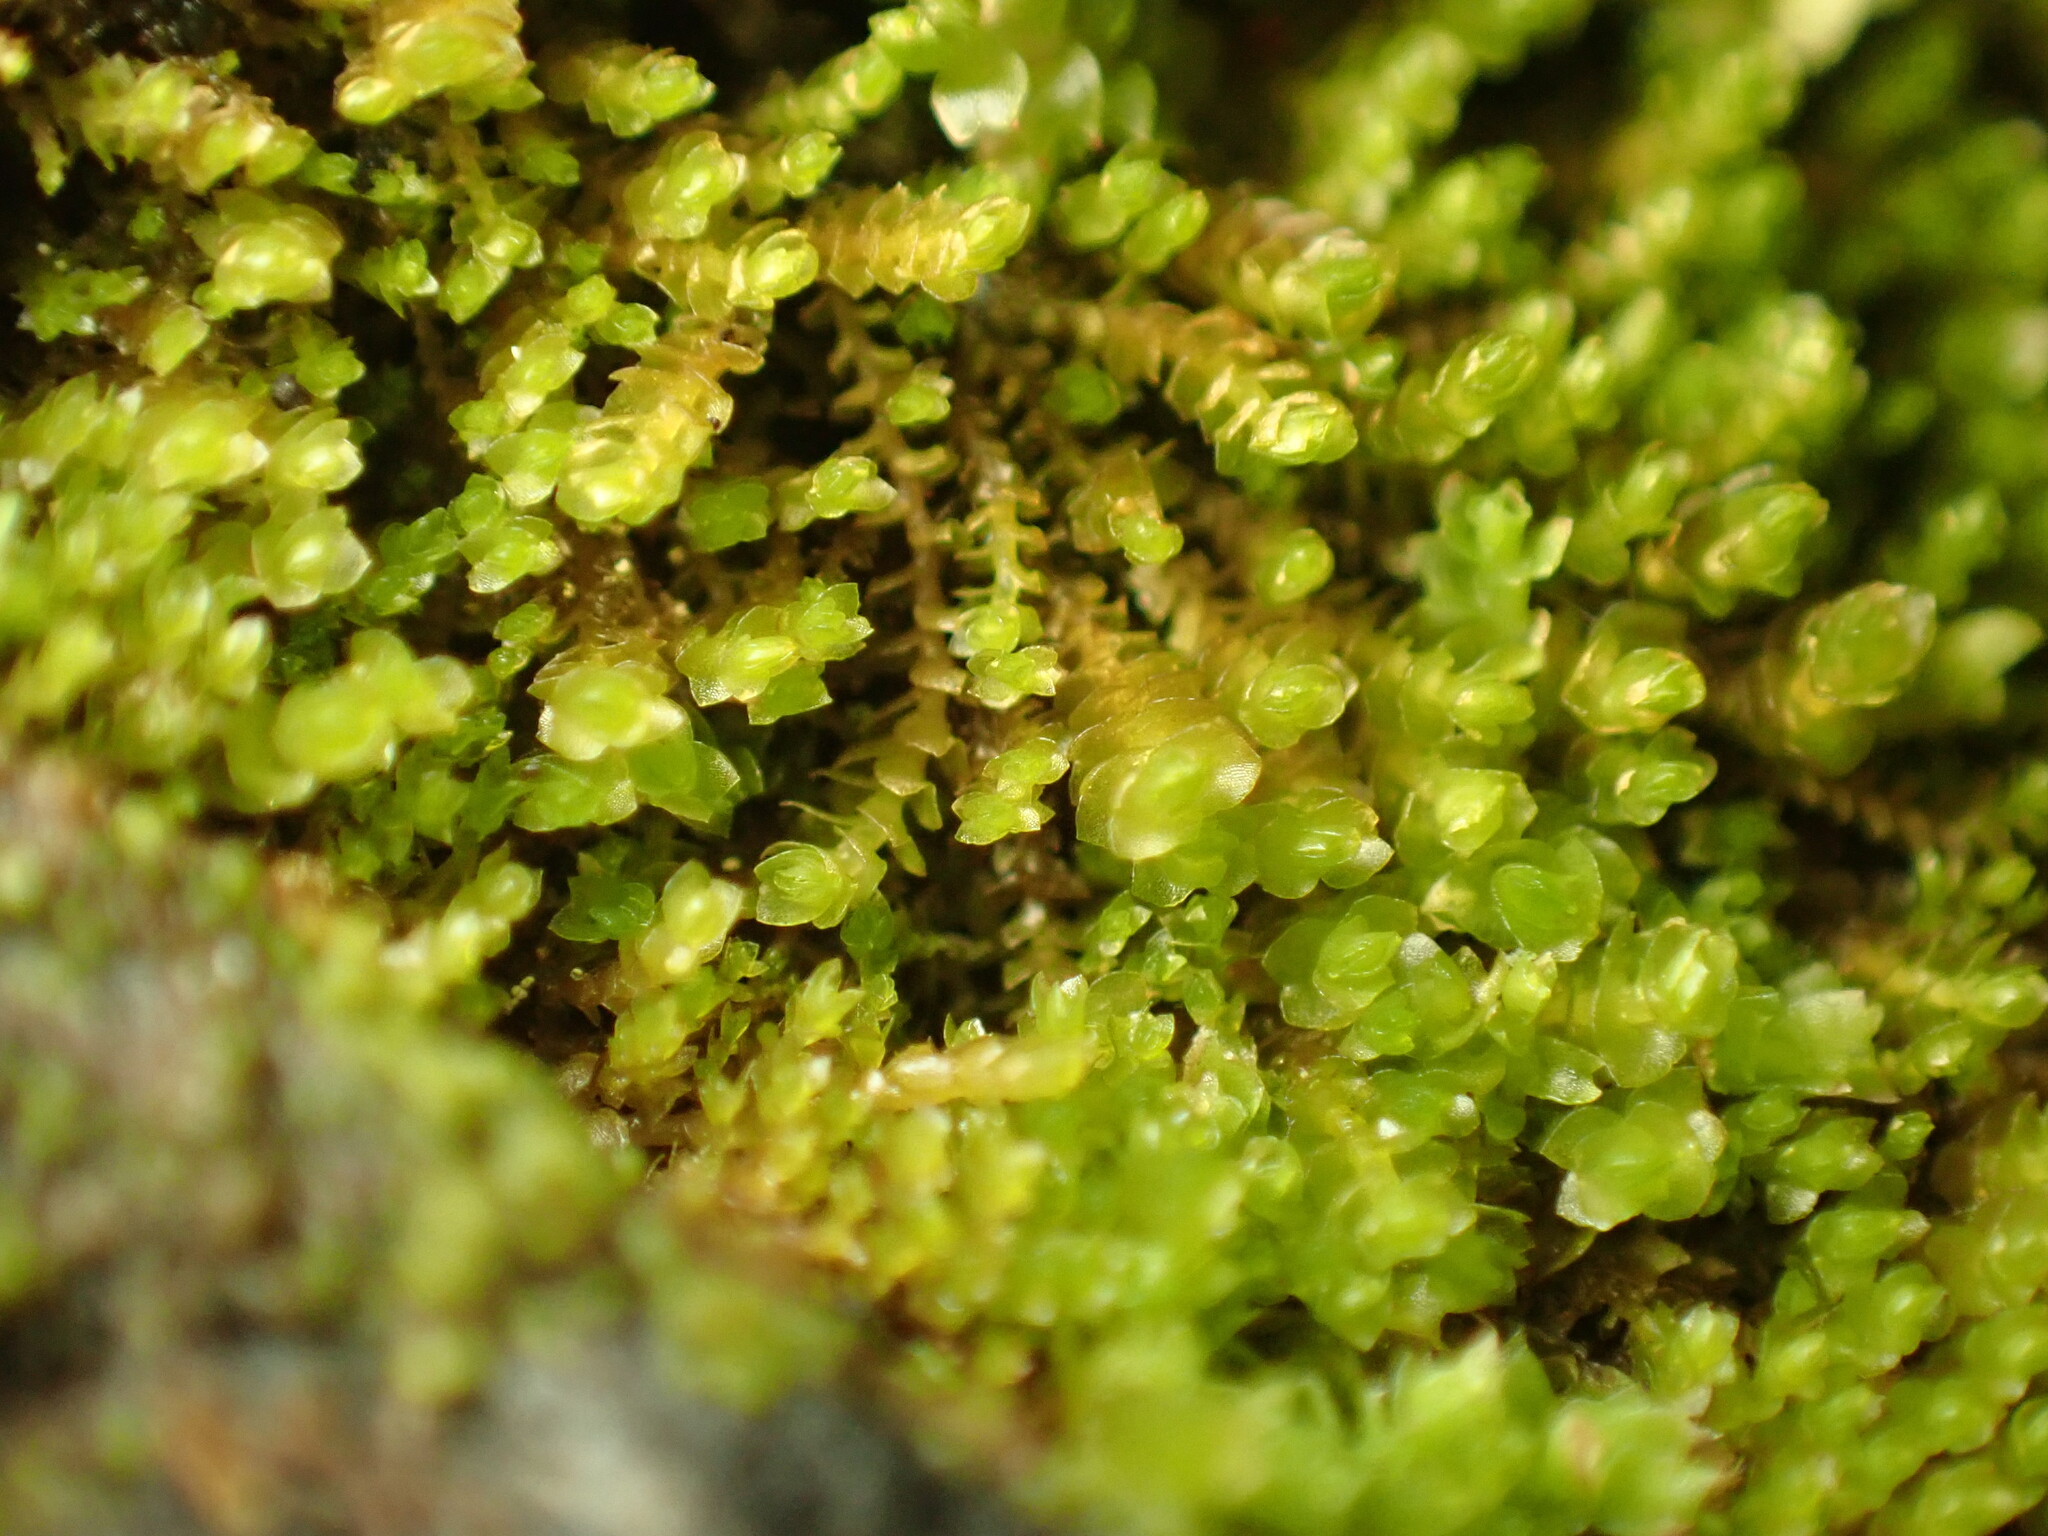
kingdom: Plantae
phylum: Marchantiophyta
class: Jungermanniopsida
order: Jungermanniales
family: Gymnomitriaceae
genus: Marsupella
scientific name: Marsupella emarginata
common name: Notched rustwort
